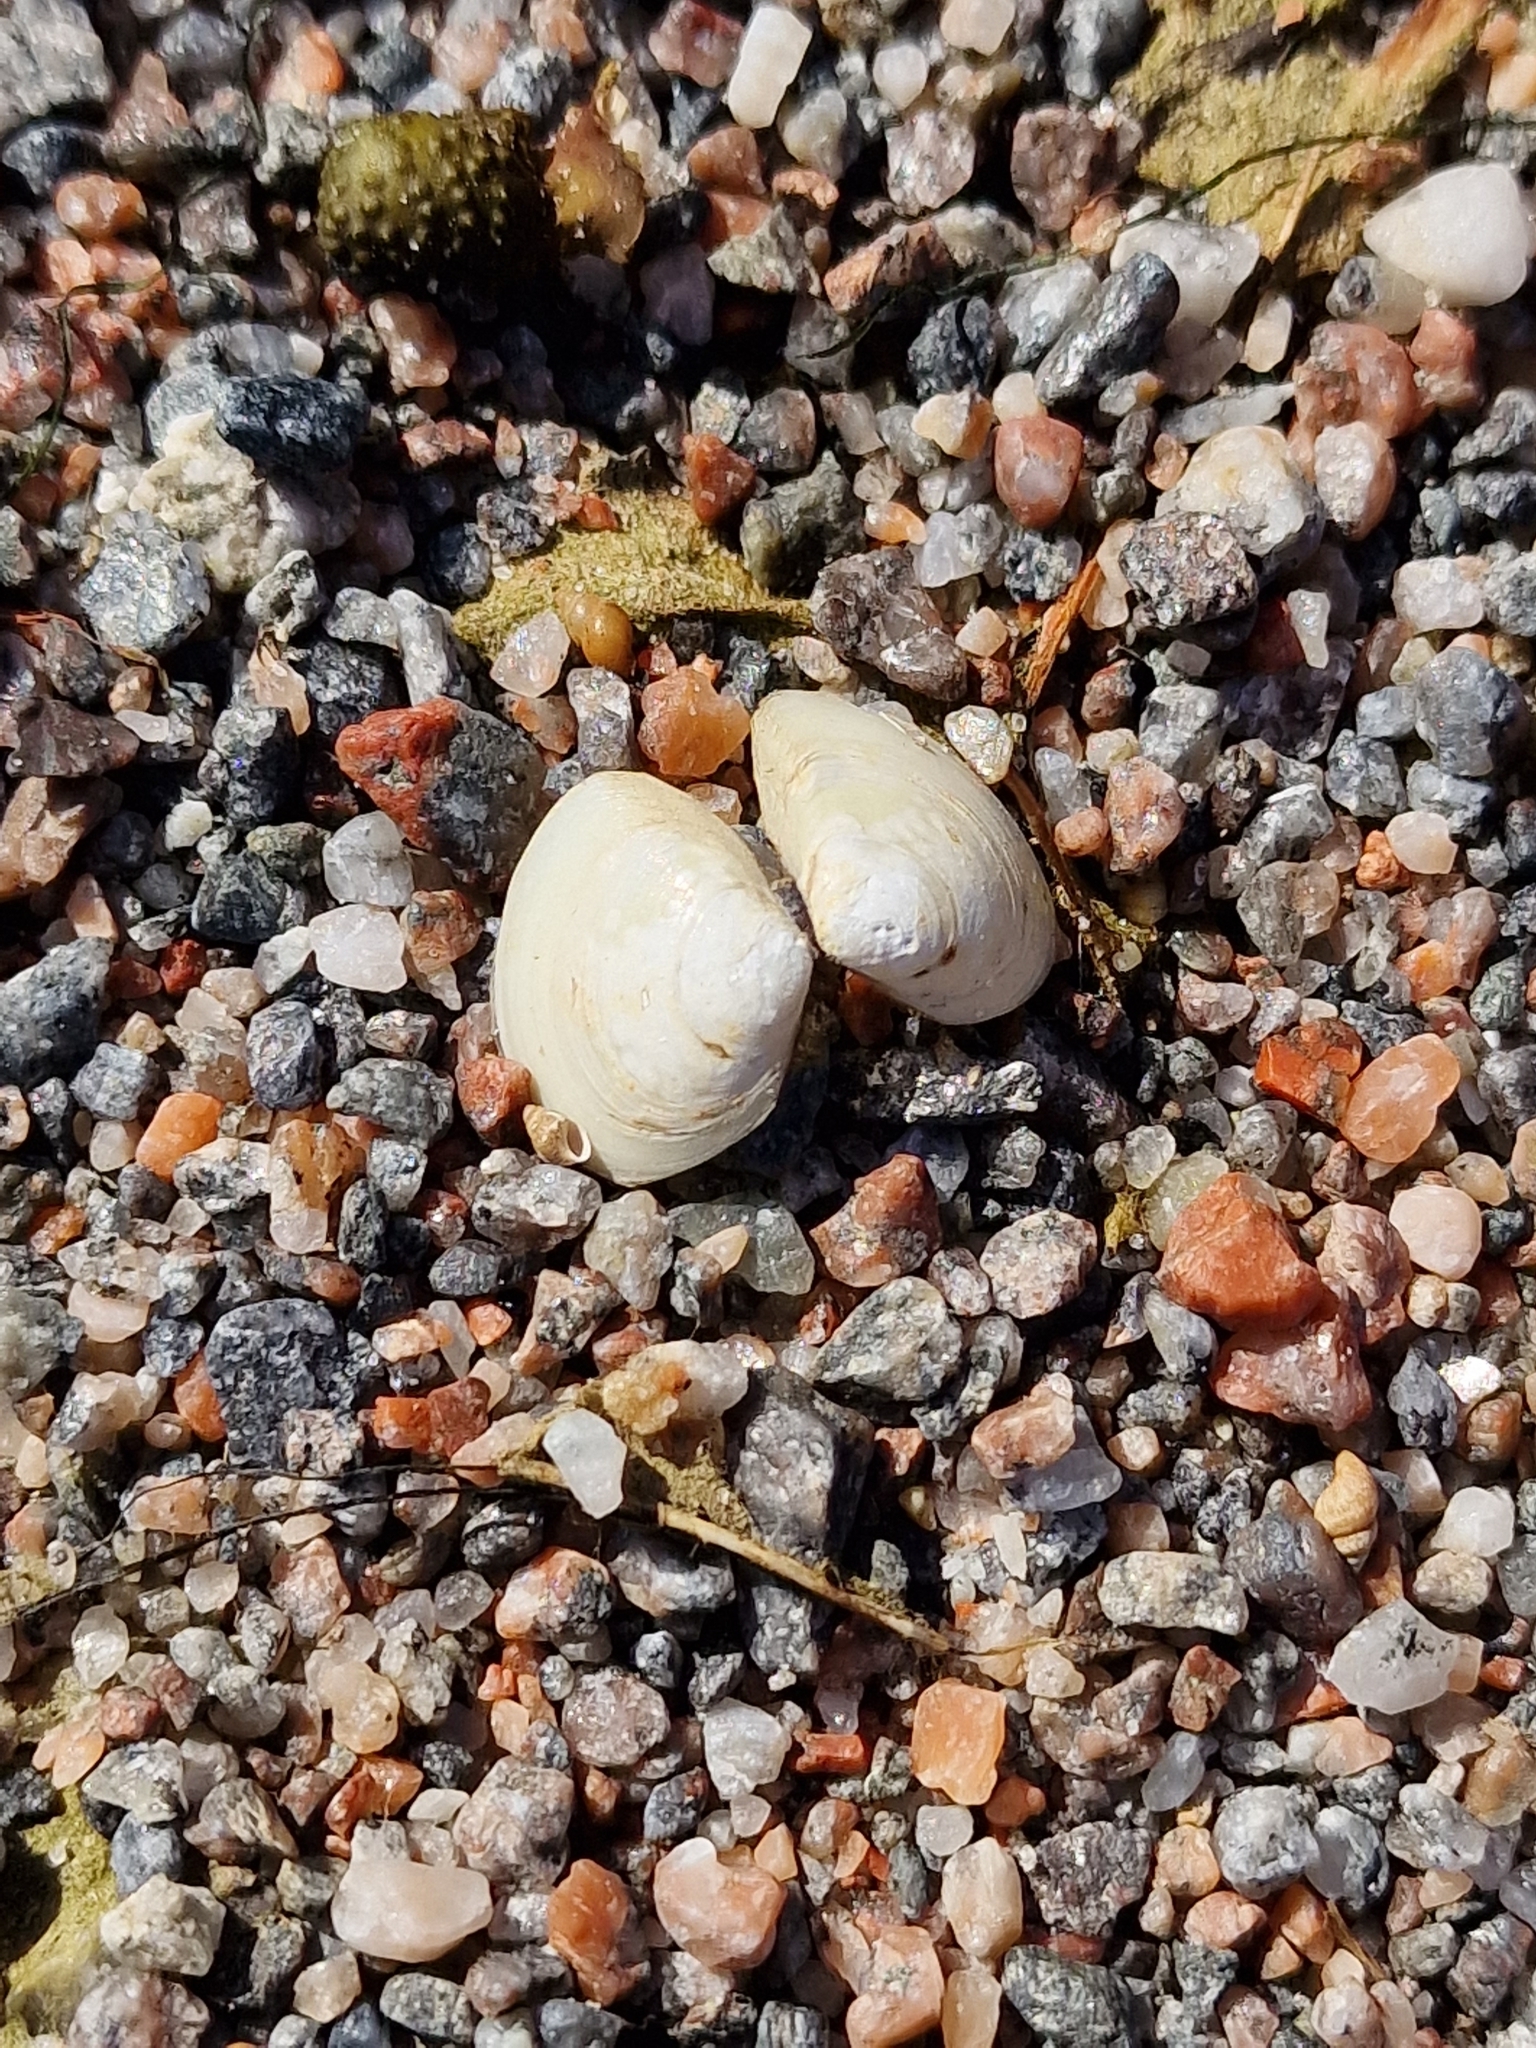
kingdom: Animalia
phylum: Mollusca
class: Bivalvia
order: Cardiida
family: Tellinidae
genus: Macoma
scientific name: Macoma balthica
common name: Baltic tellin
